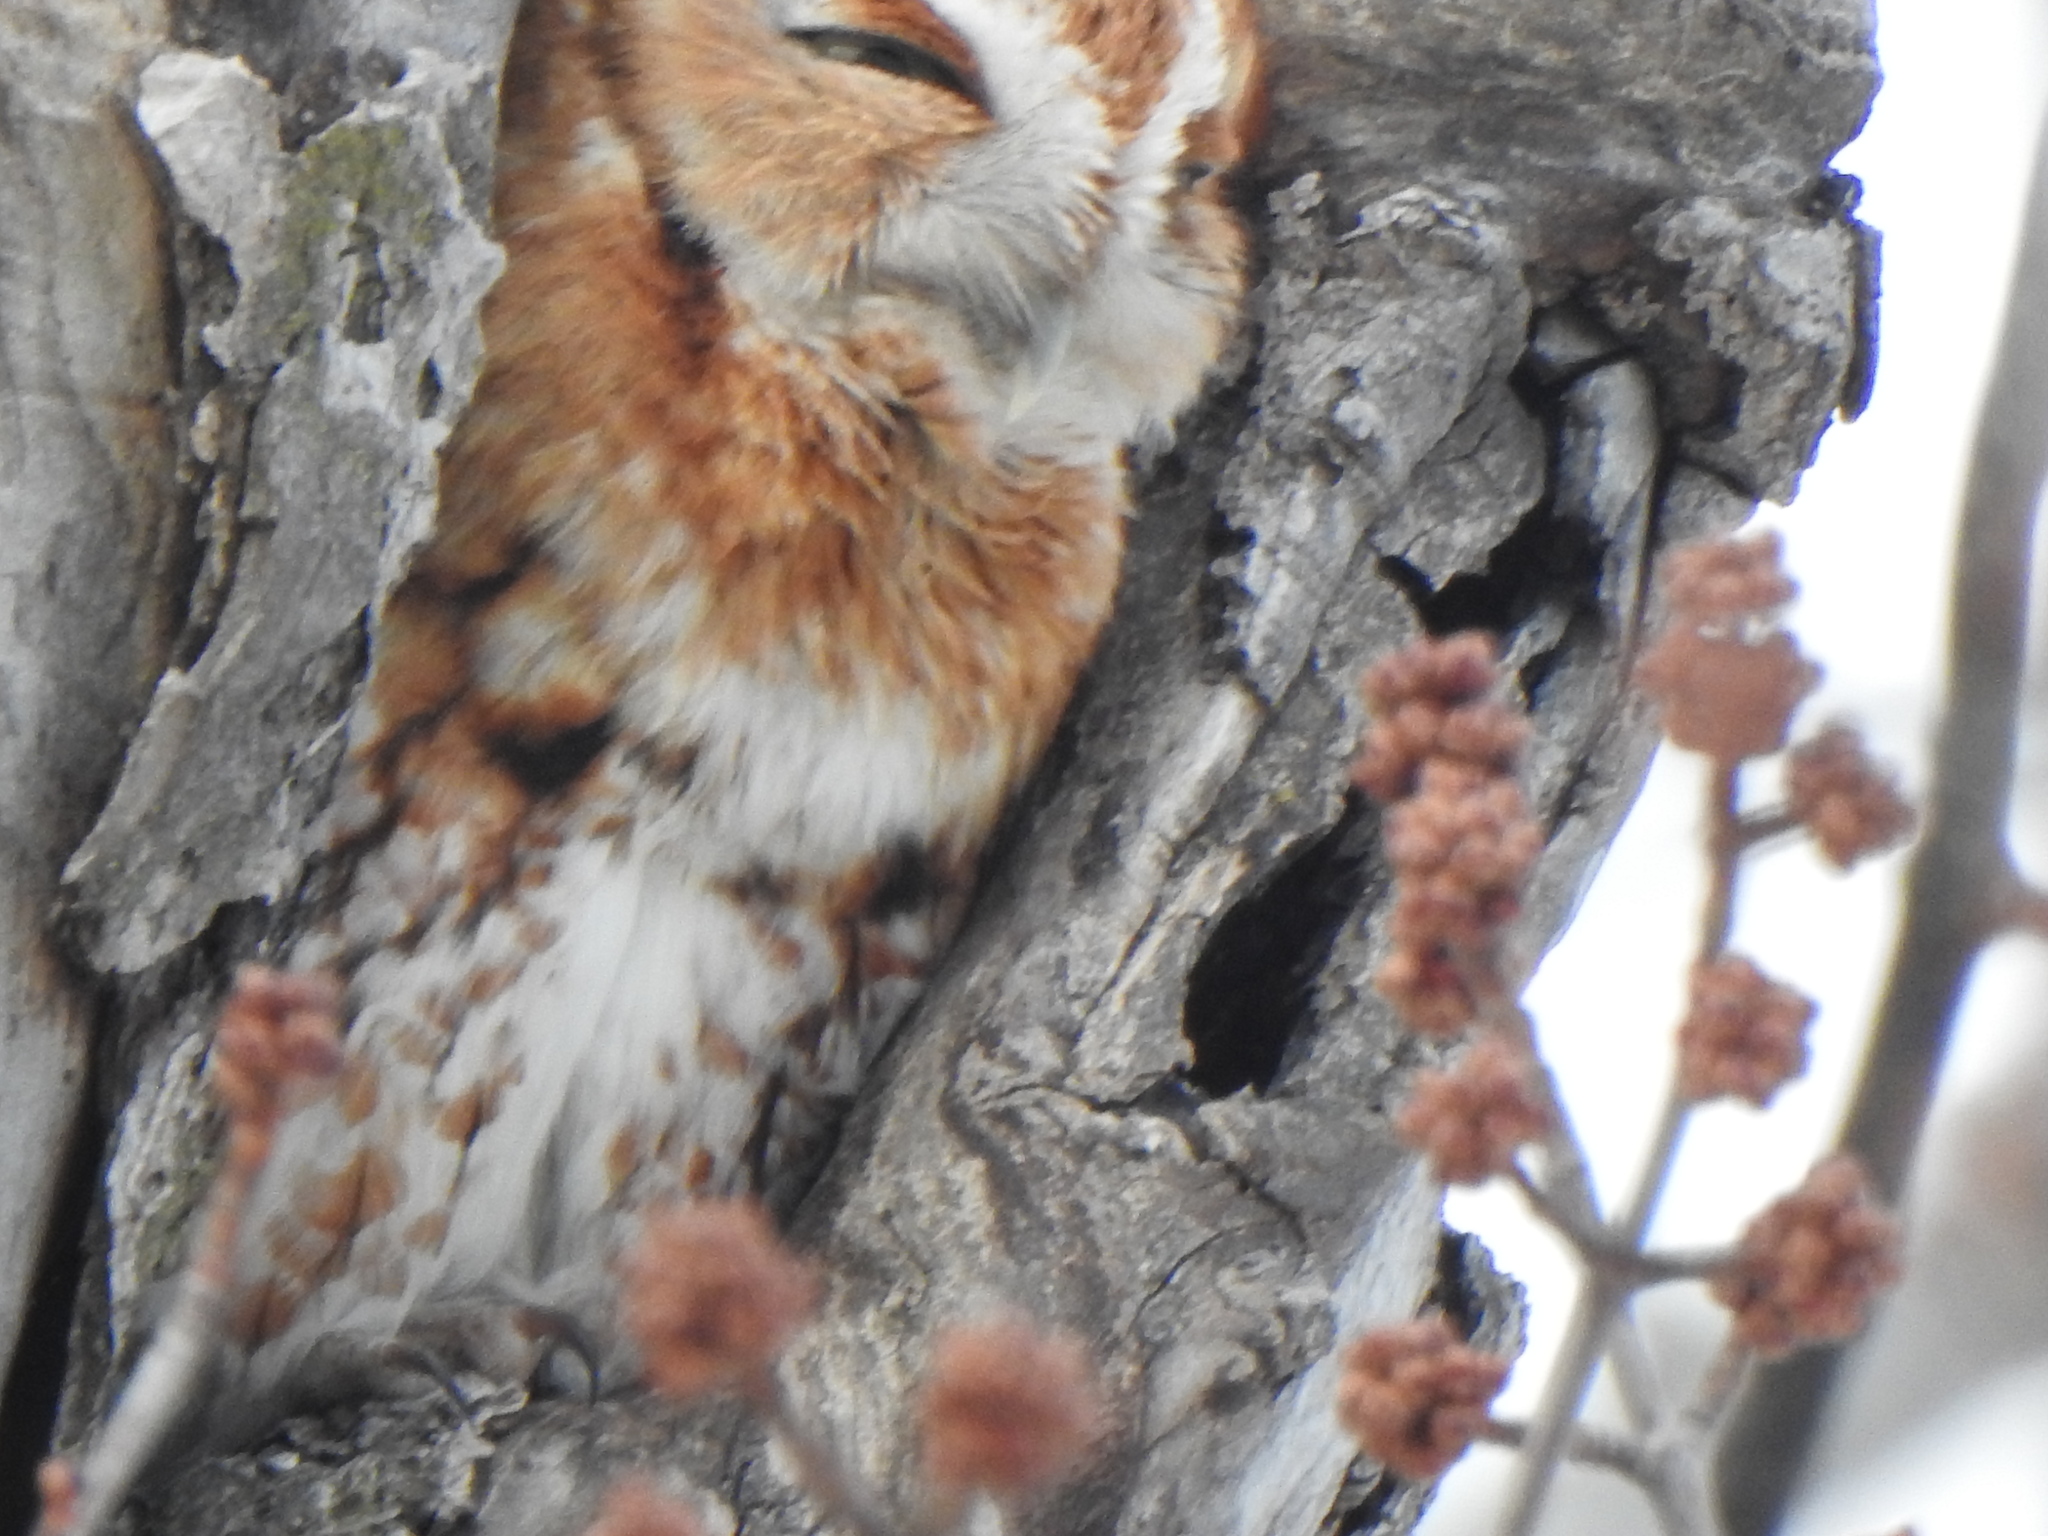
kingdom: Animalia
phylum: Chordata
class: Aves
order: Strigiformes
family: Strigidae
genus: Megascops
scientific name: Megascops asio
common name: Eastern screech-owl
